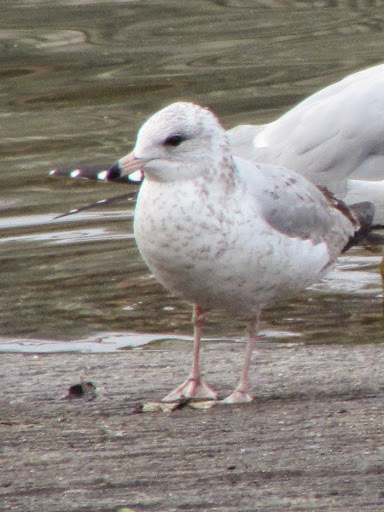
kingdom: Animalia
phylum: Chordata
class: Aves
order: Charadriiformes
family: Laridae
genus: Larus
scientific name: Larus delawarensis
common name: Ring-billed gull
